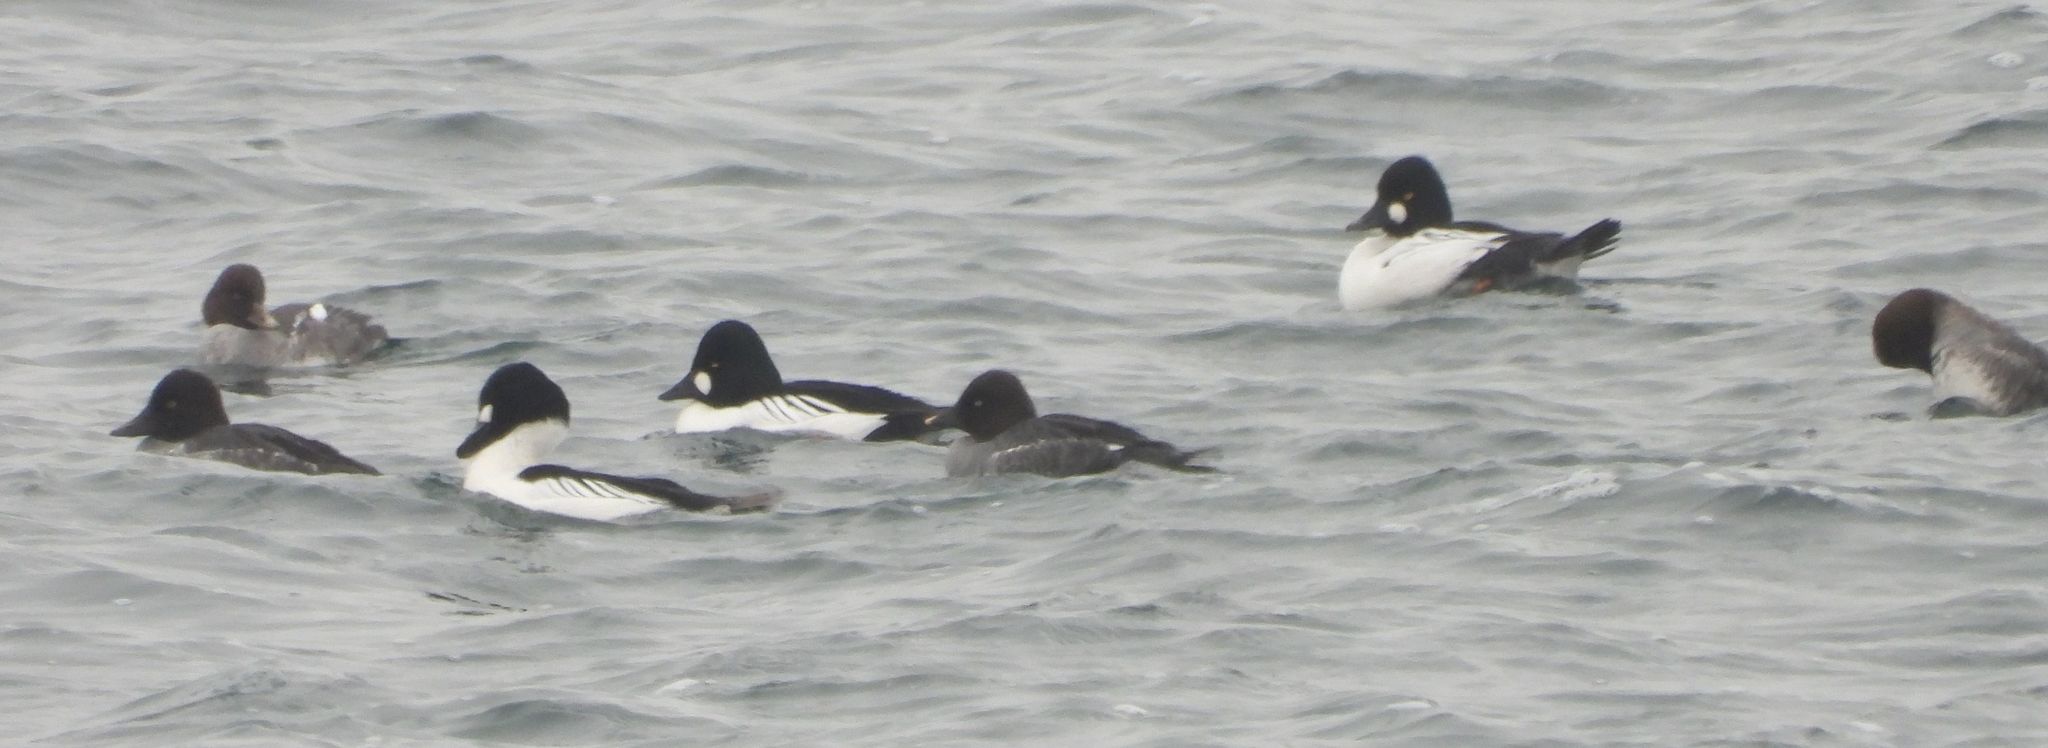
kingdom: Animalia
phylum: Chordata
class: Aves
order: Anseriformes
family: Anatidae
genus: Bucephala
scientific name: Bucephala clangula
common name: Common goldeneye
